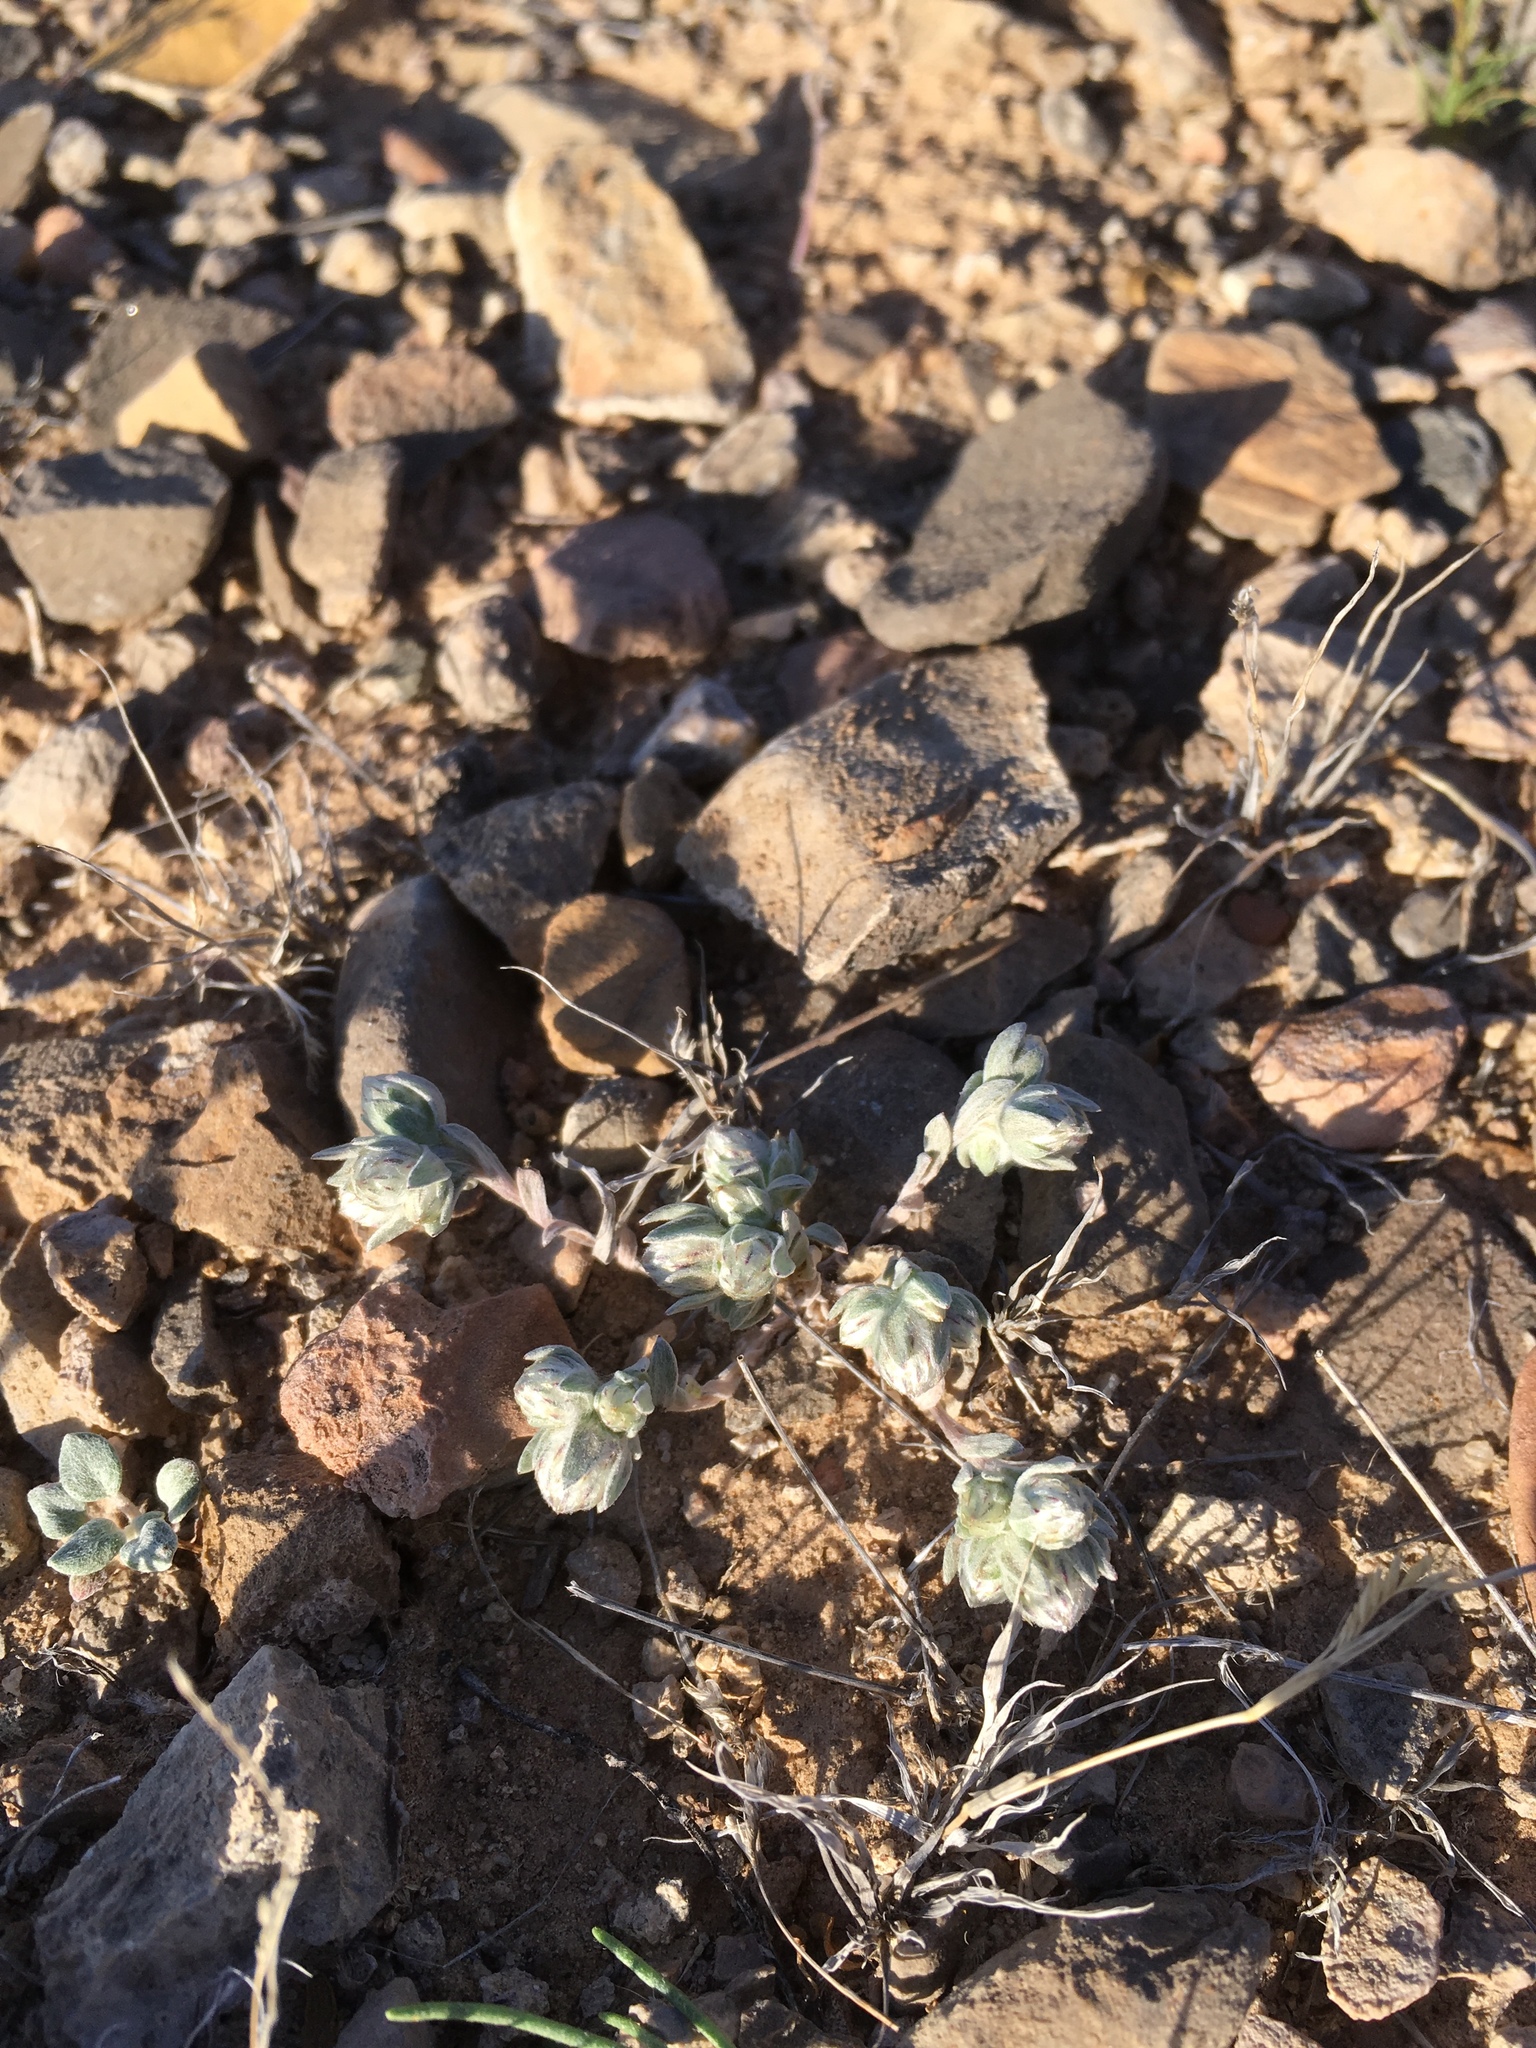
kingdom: Plantae
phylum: Tracheophyta
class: Magnoliopsida
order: Asterales
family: Asteraceae
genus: Stylocline
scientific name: Stylocline micropoides
